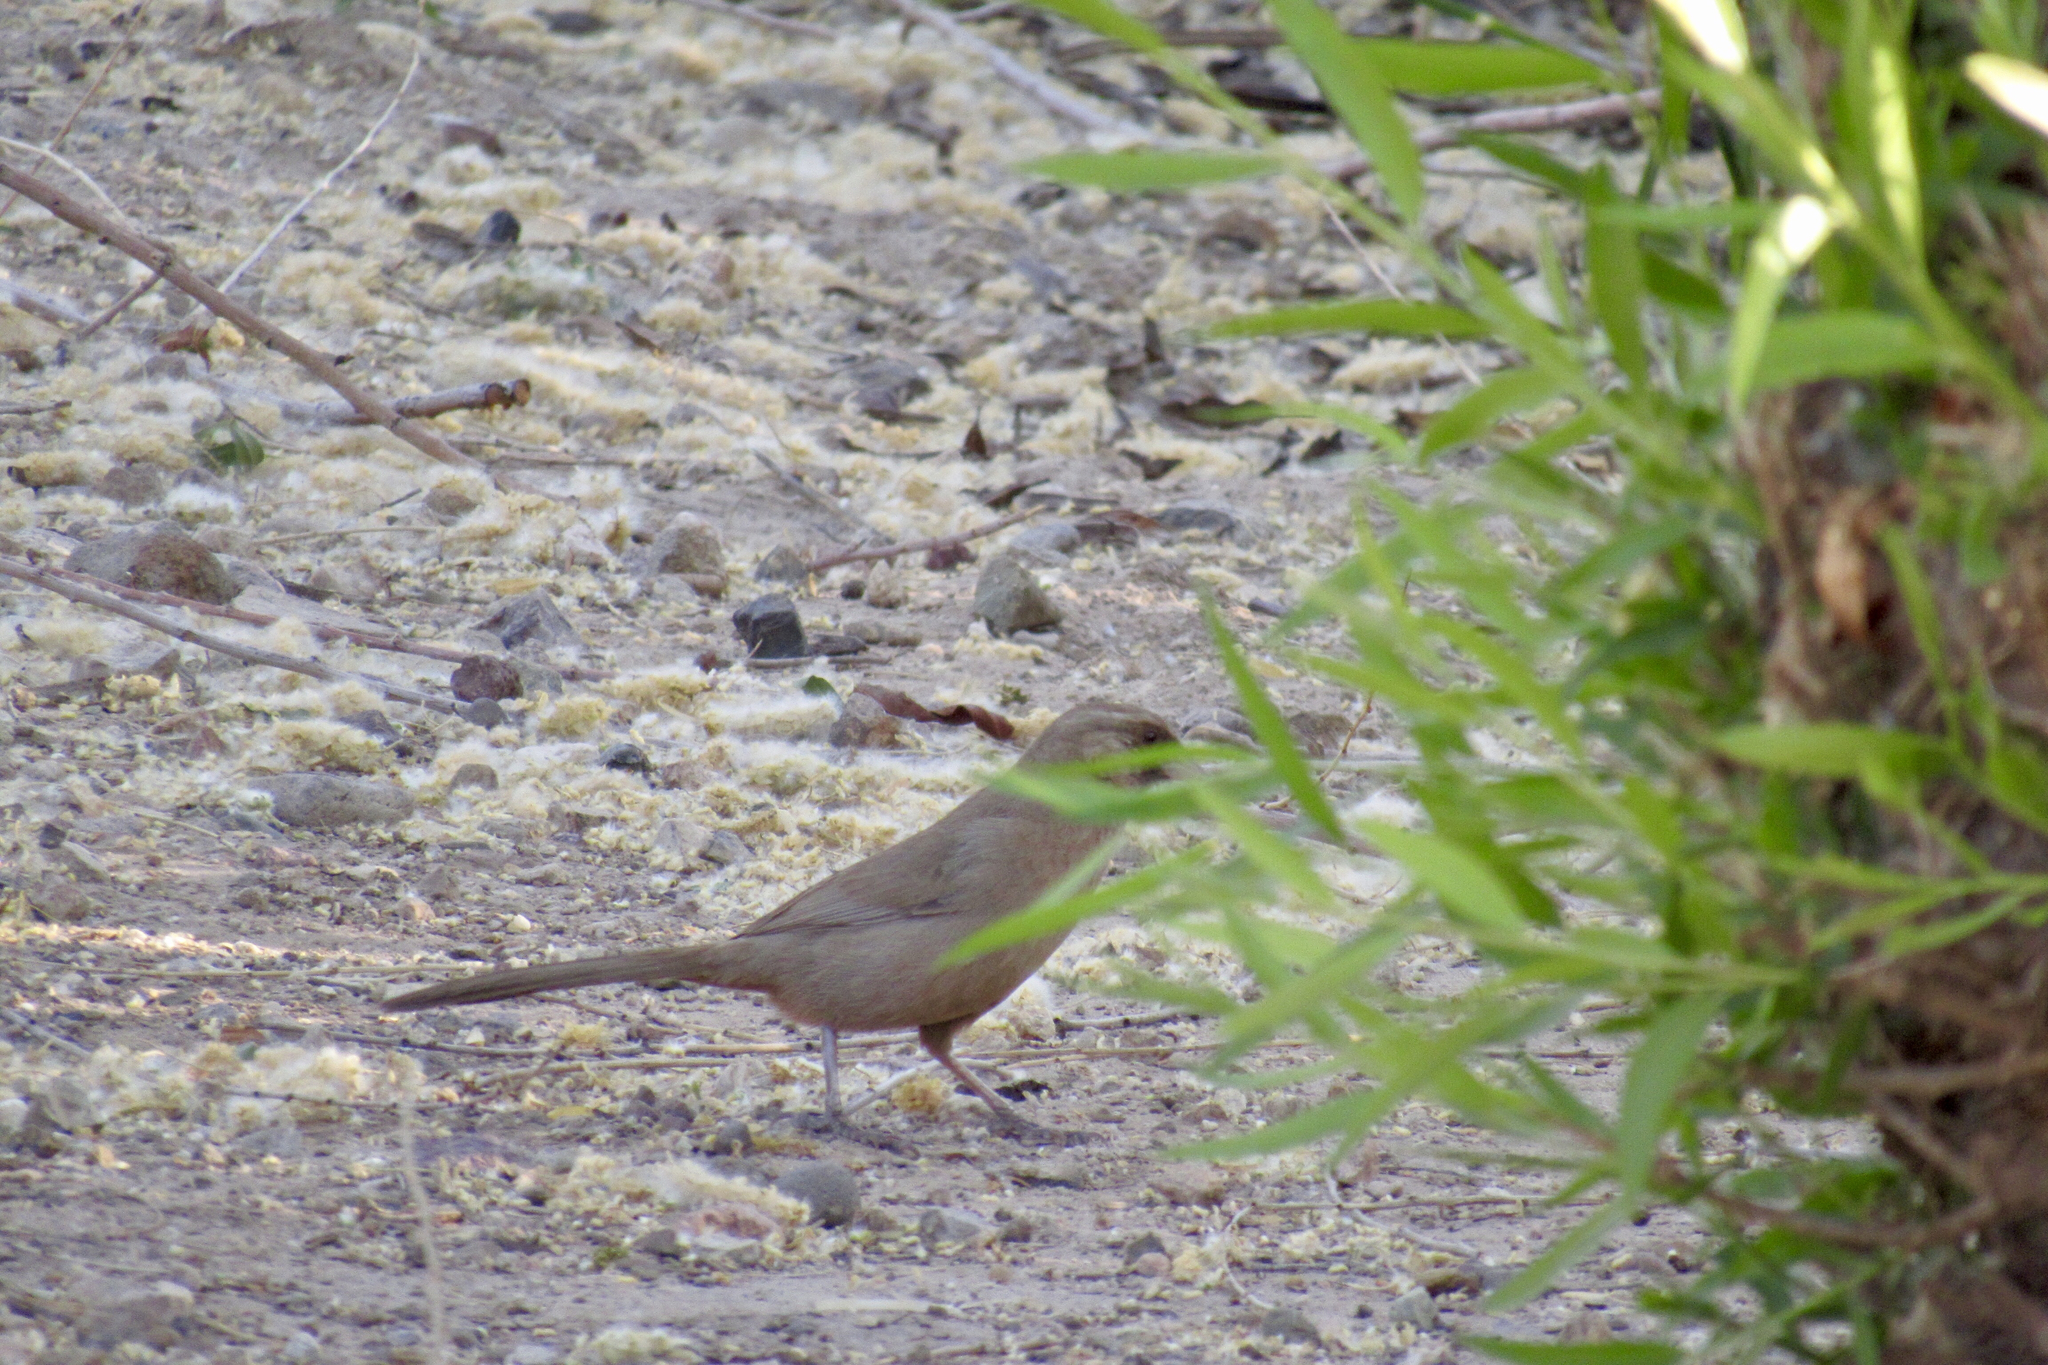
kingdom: Animalia
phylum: Chordata
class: Aves
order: Passeriformes
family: Passerellidae
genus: Melozone
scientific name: Melozone aberti
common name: Abert's towhee
